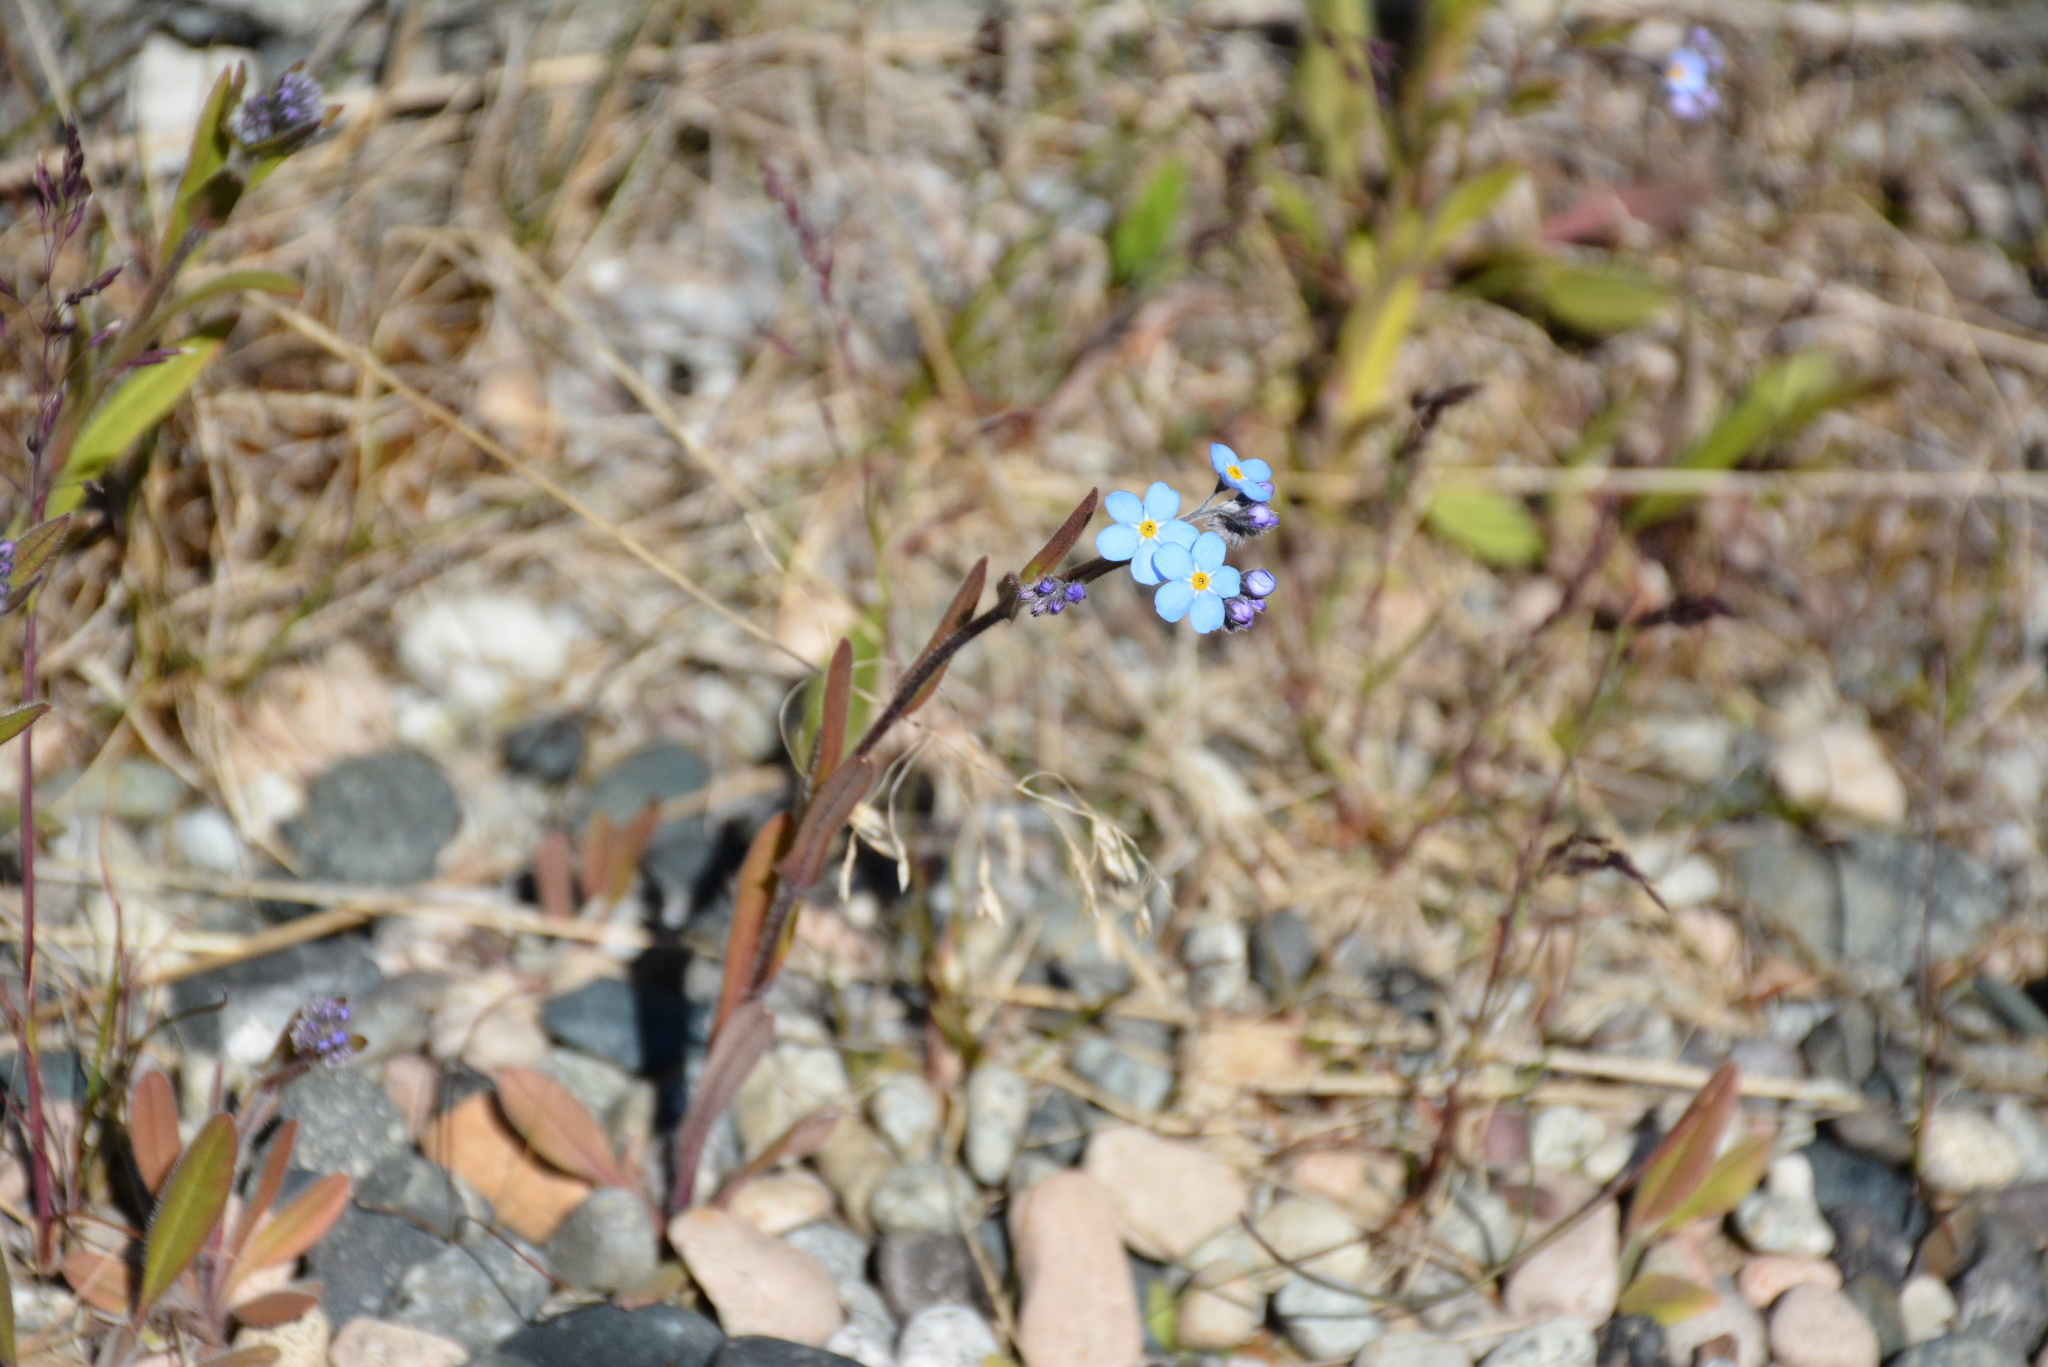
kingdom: Plantae
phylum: Tracheophyta
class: Magnoliopsida
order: Boraginales
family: Boraginaceae
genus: Myosotis
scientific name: Myosotis asiatica
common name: Asian forget-me-not
